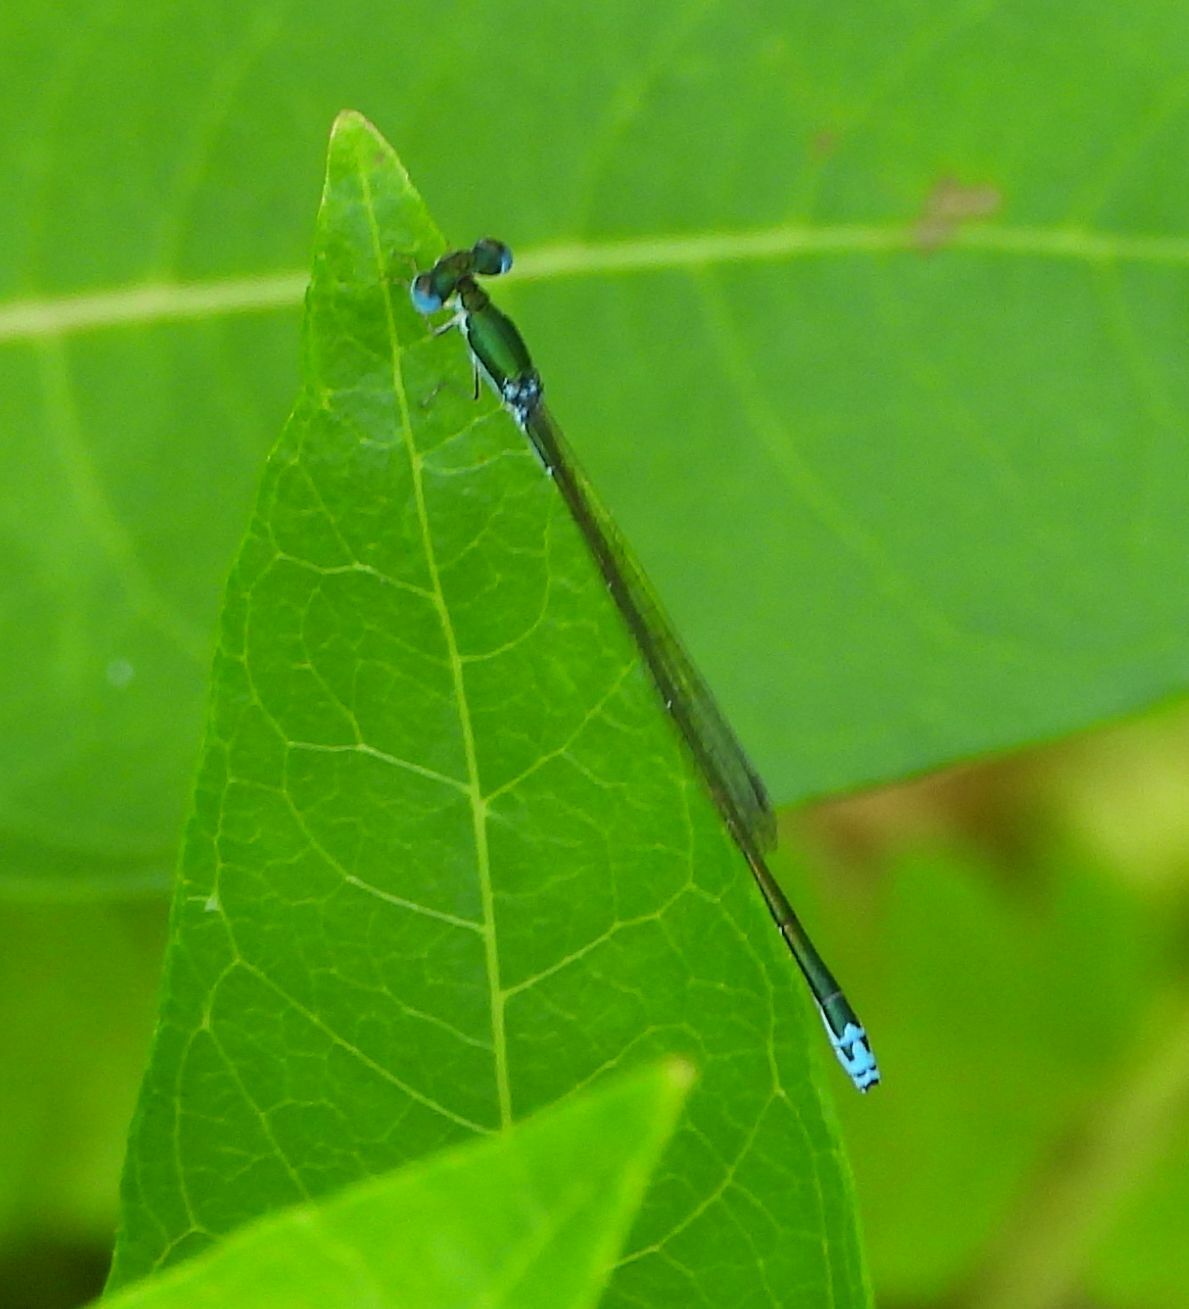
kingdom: Animalia
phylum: Arthropoda
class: Insecta
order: Odonata
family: Coenagrionidae
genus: Nehalennia
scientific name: Nehalennia irene
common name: Sedge sprite
